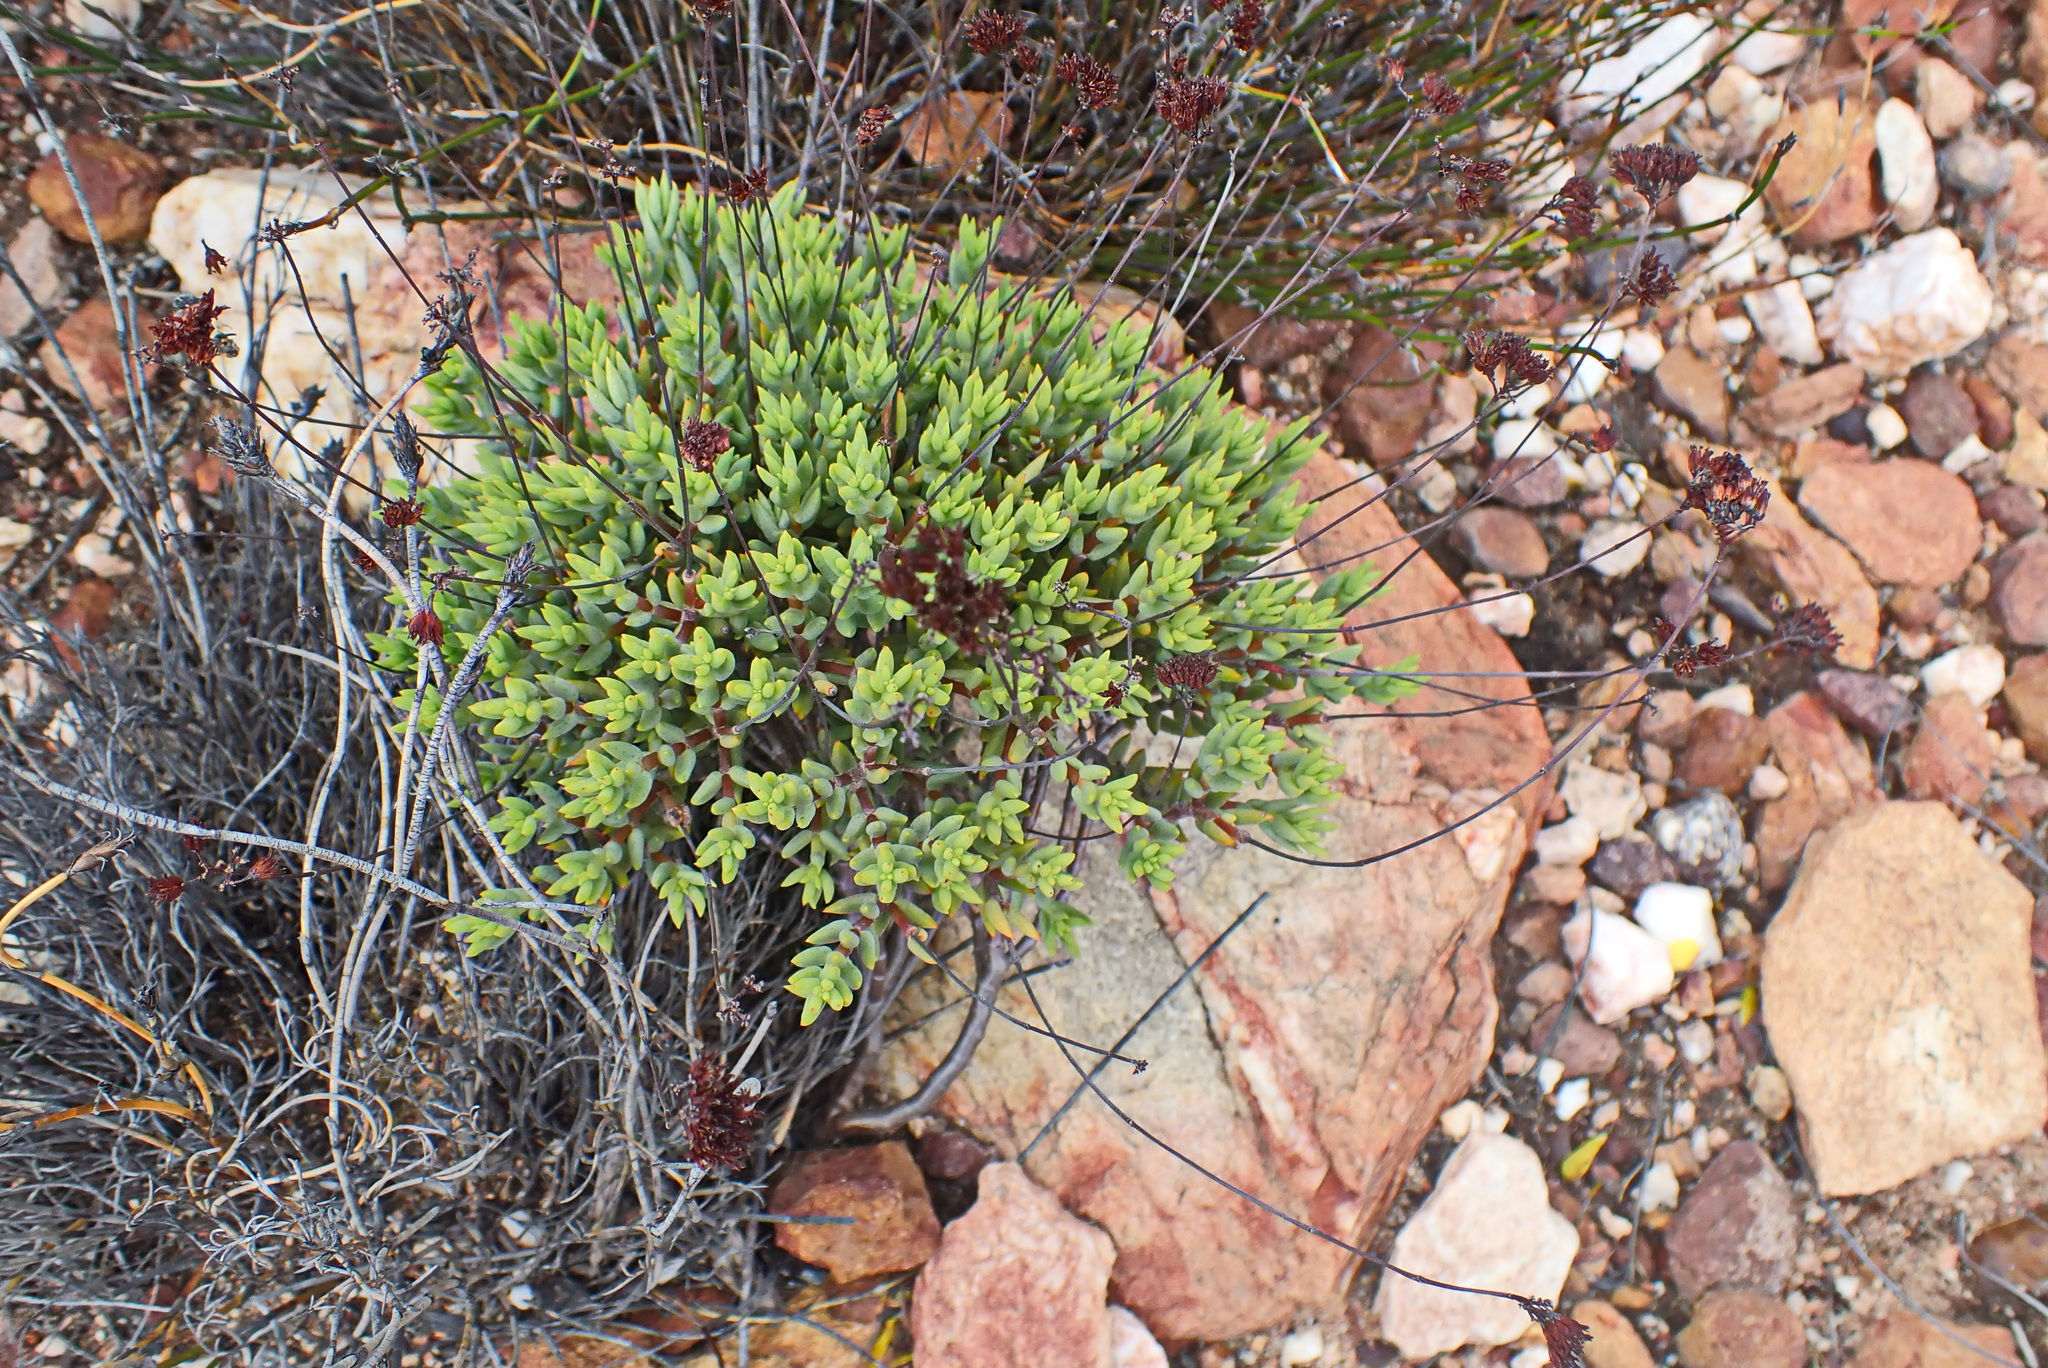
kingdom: Plantae
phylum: Tracheophyta
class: Magnoliopsida
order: Saxifragales
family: Crassulaceae
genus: Crassula
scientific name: Crassula tetragona
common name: Pygmyweed
